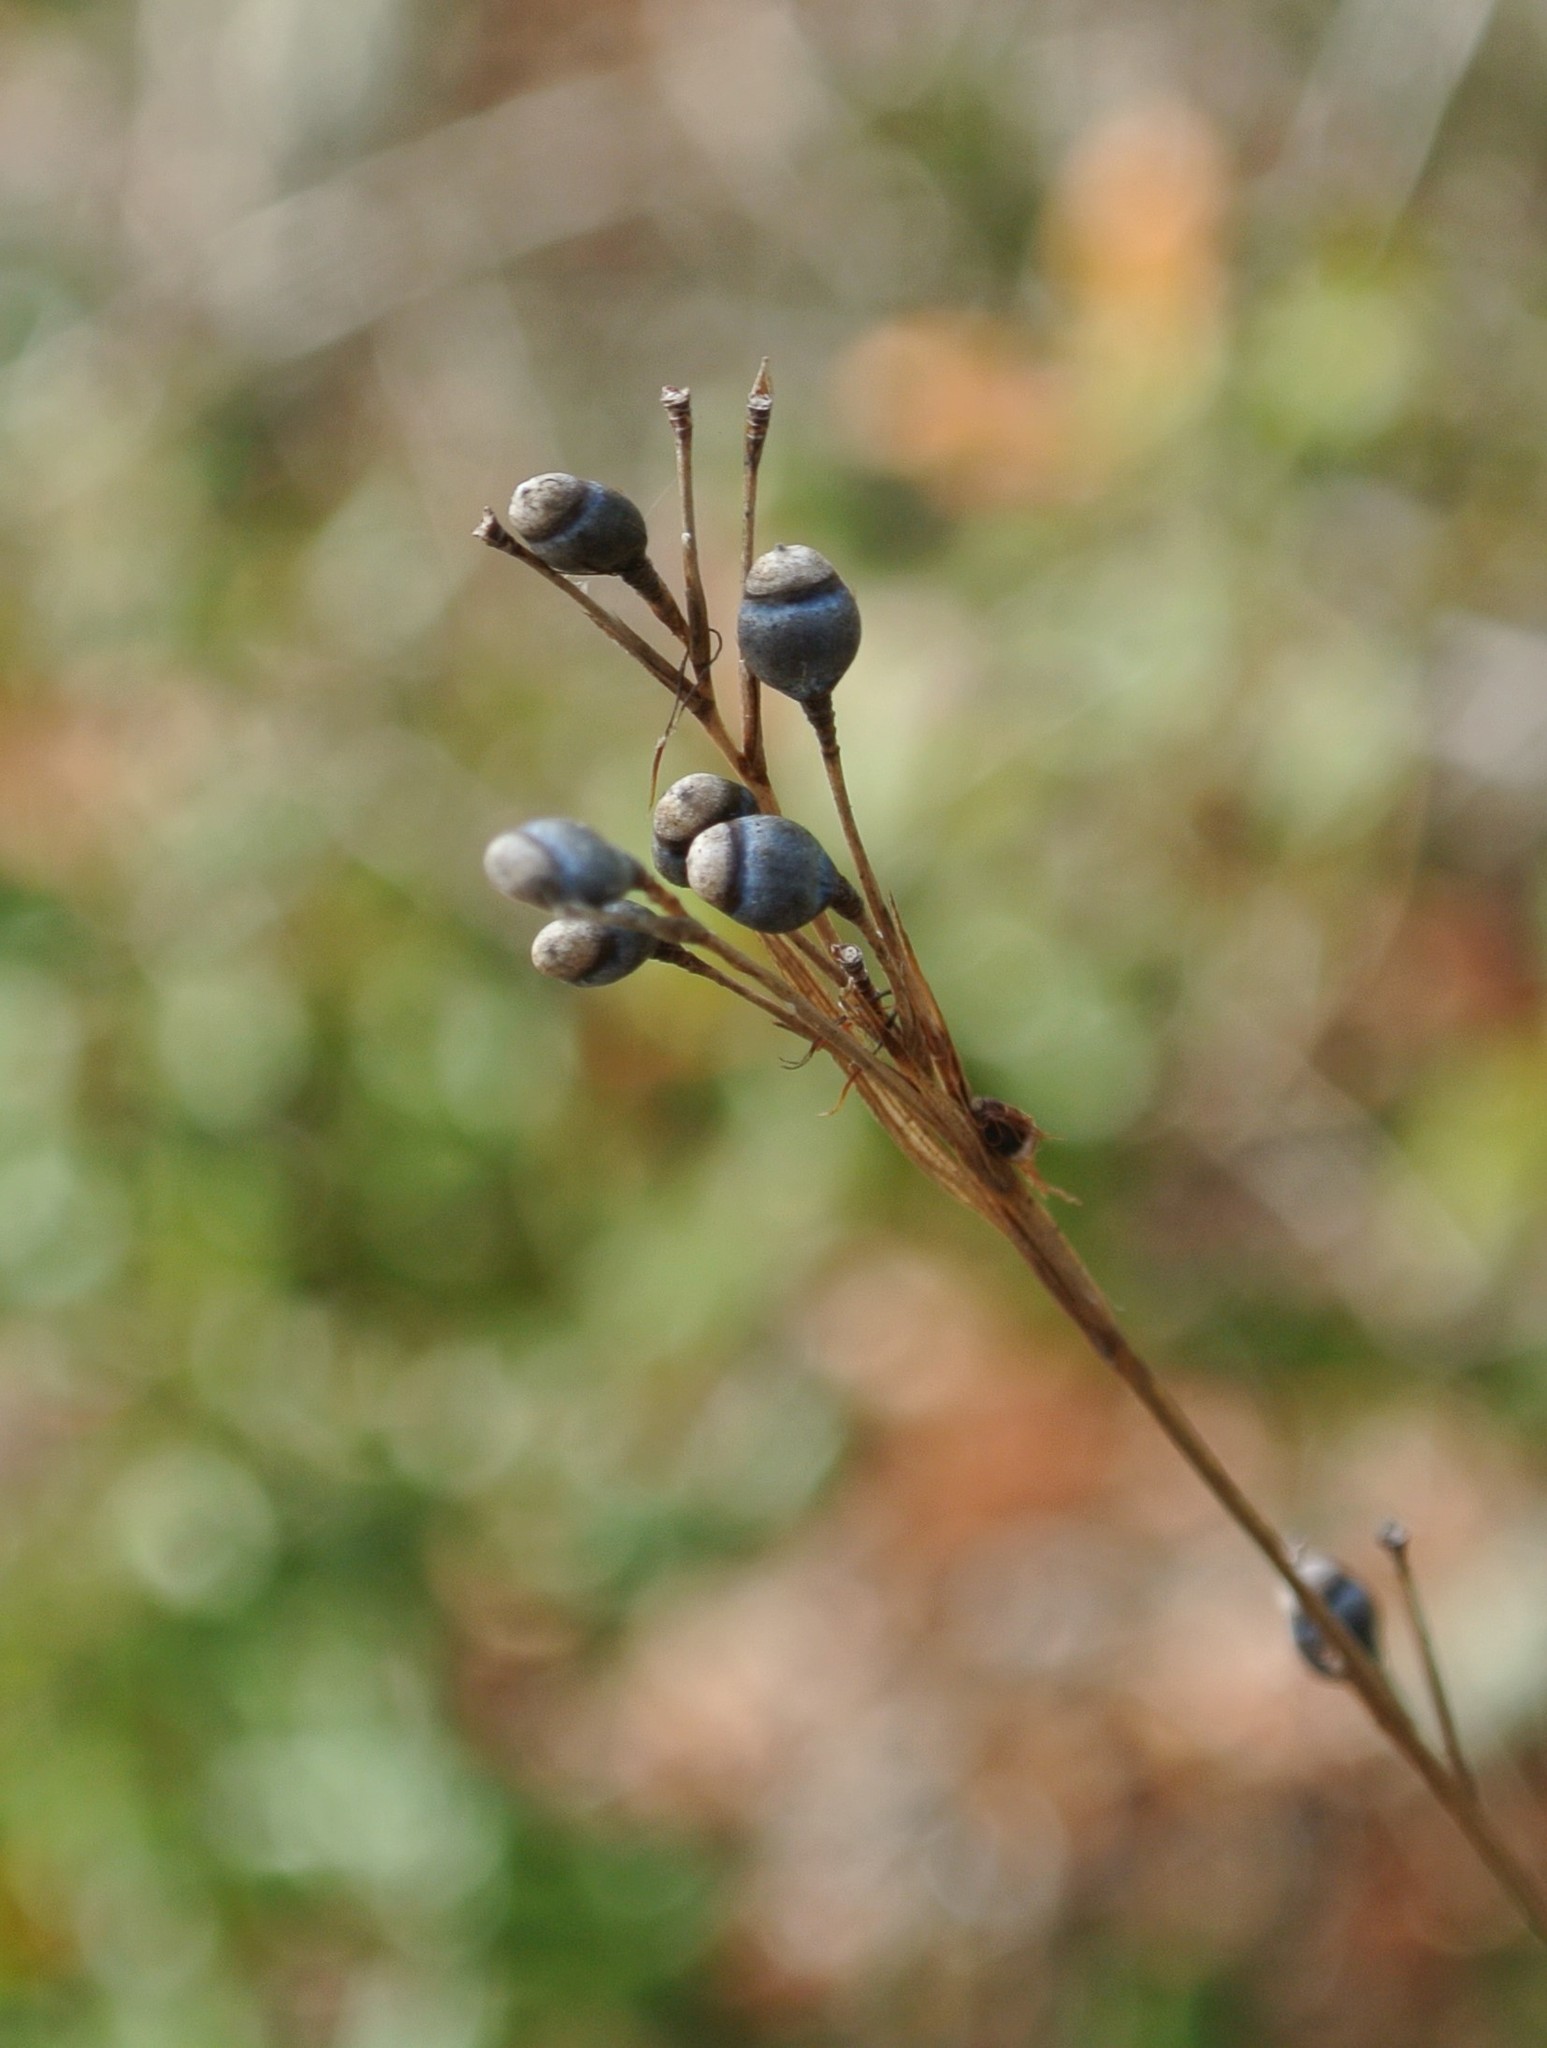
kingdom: Plantae
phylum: Tracheophyta
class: Liliopsida
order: Poales
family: Cyperaceae
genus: Rhynchospora
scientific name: Rhynchospora megalocarpa
